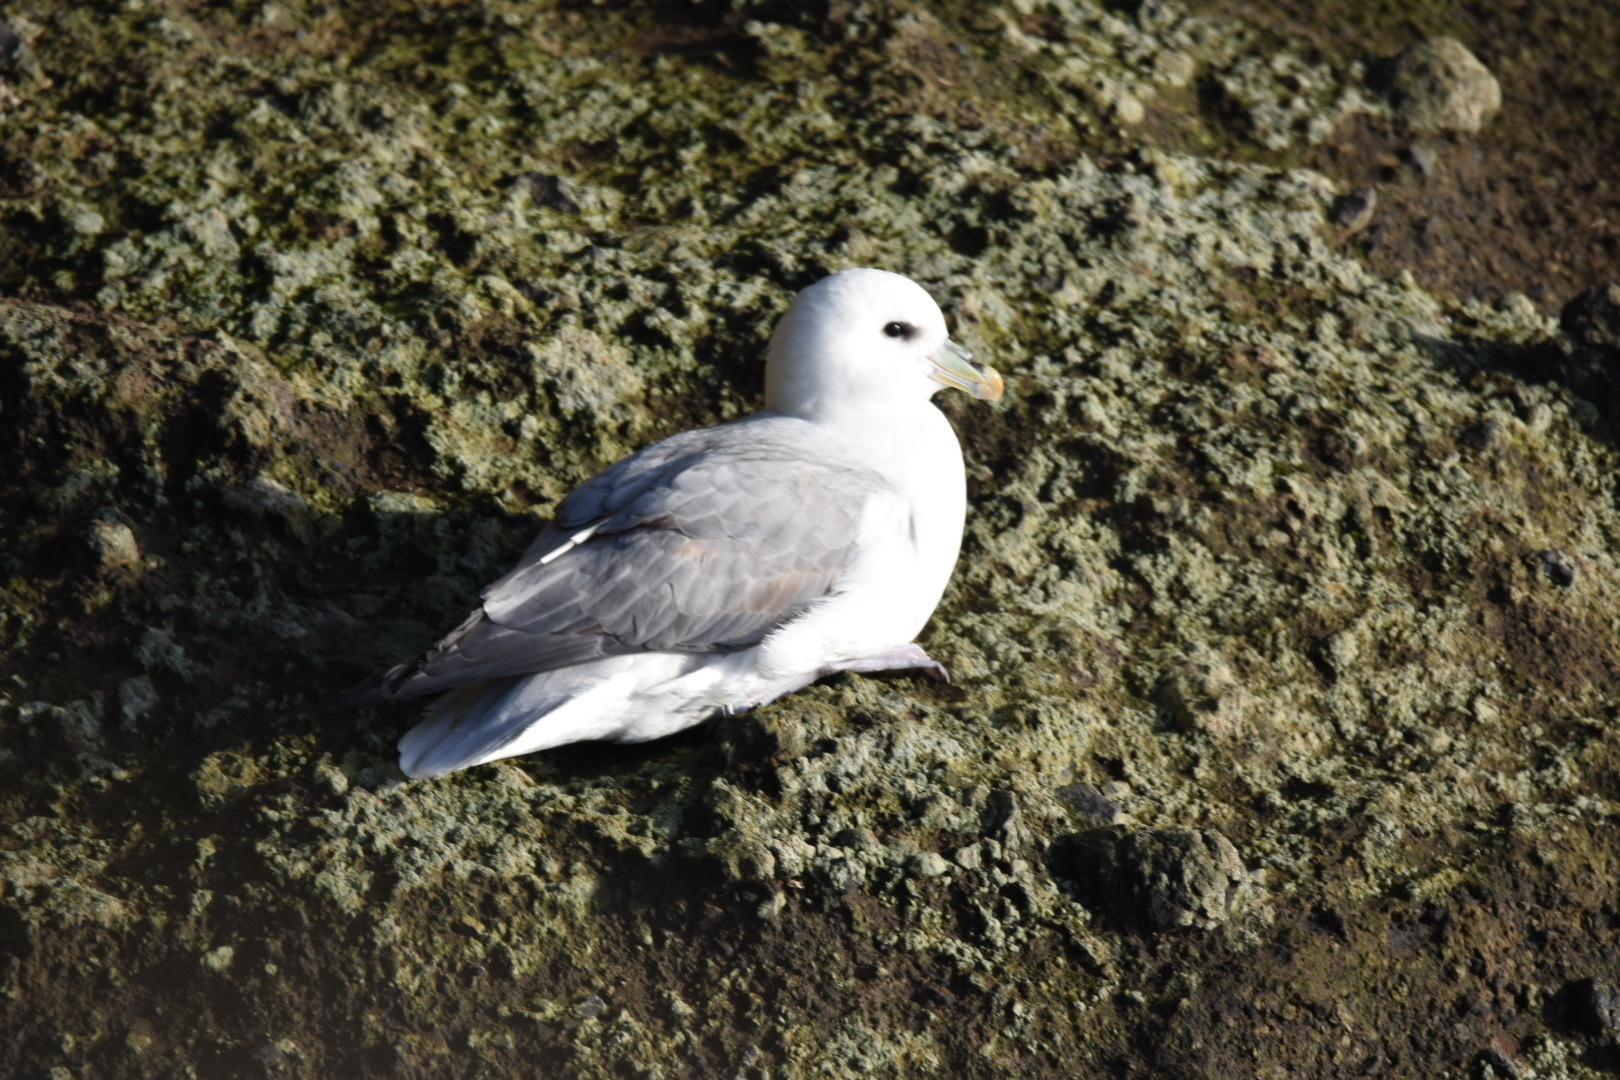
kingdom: Animalia
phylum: Chordata
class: Aves
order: Procellariiformes
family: Procellariidae
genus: Fulmarus
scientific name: Fulmarus glacialis
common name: Northern fulmar
